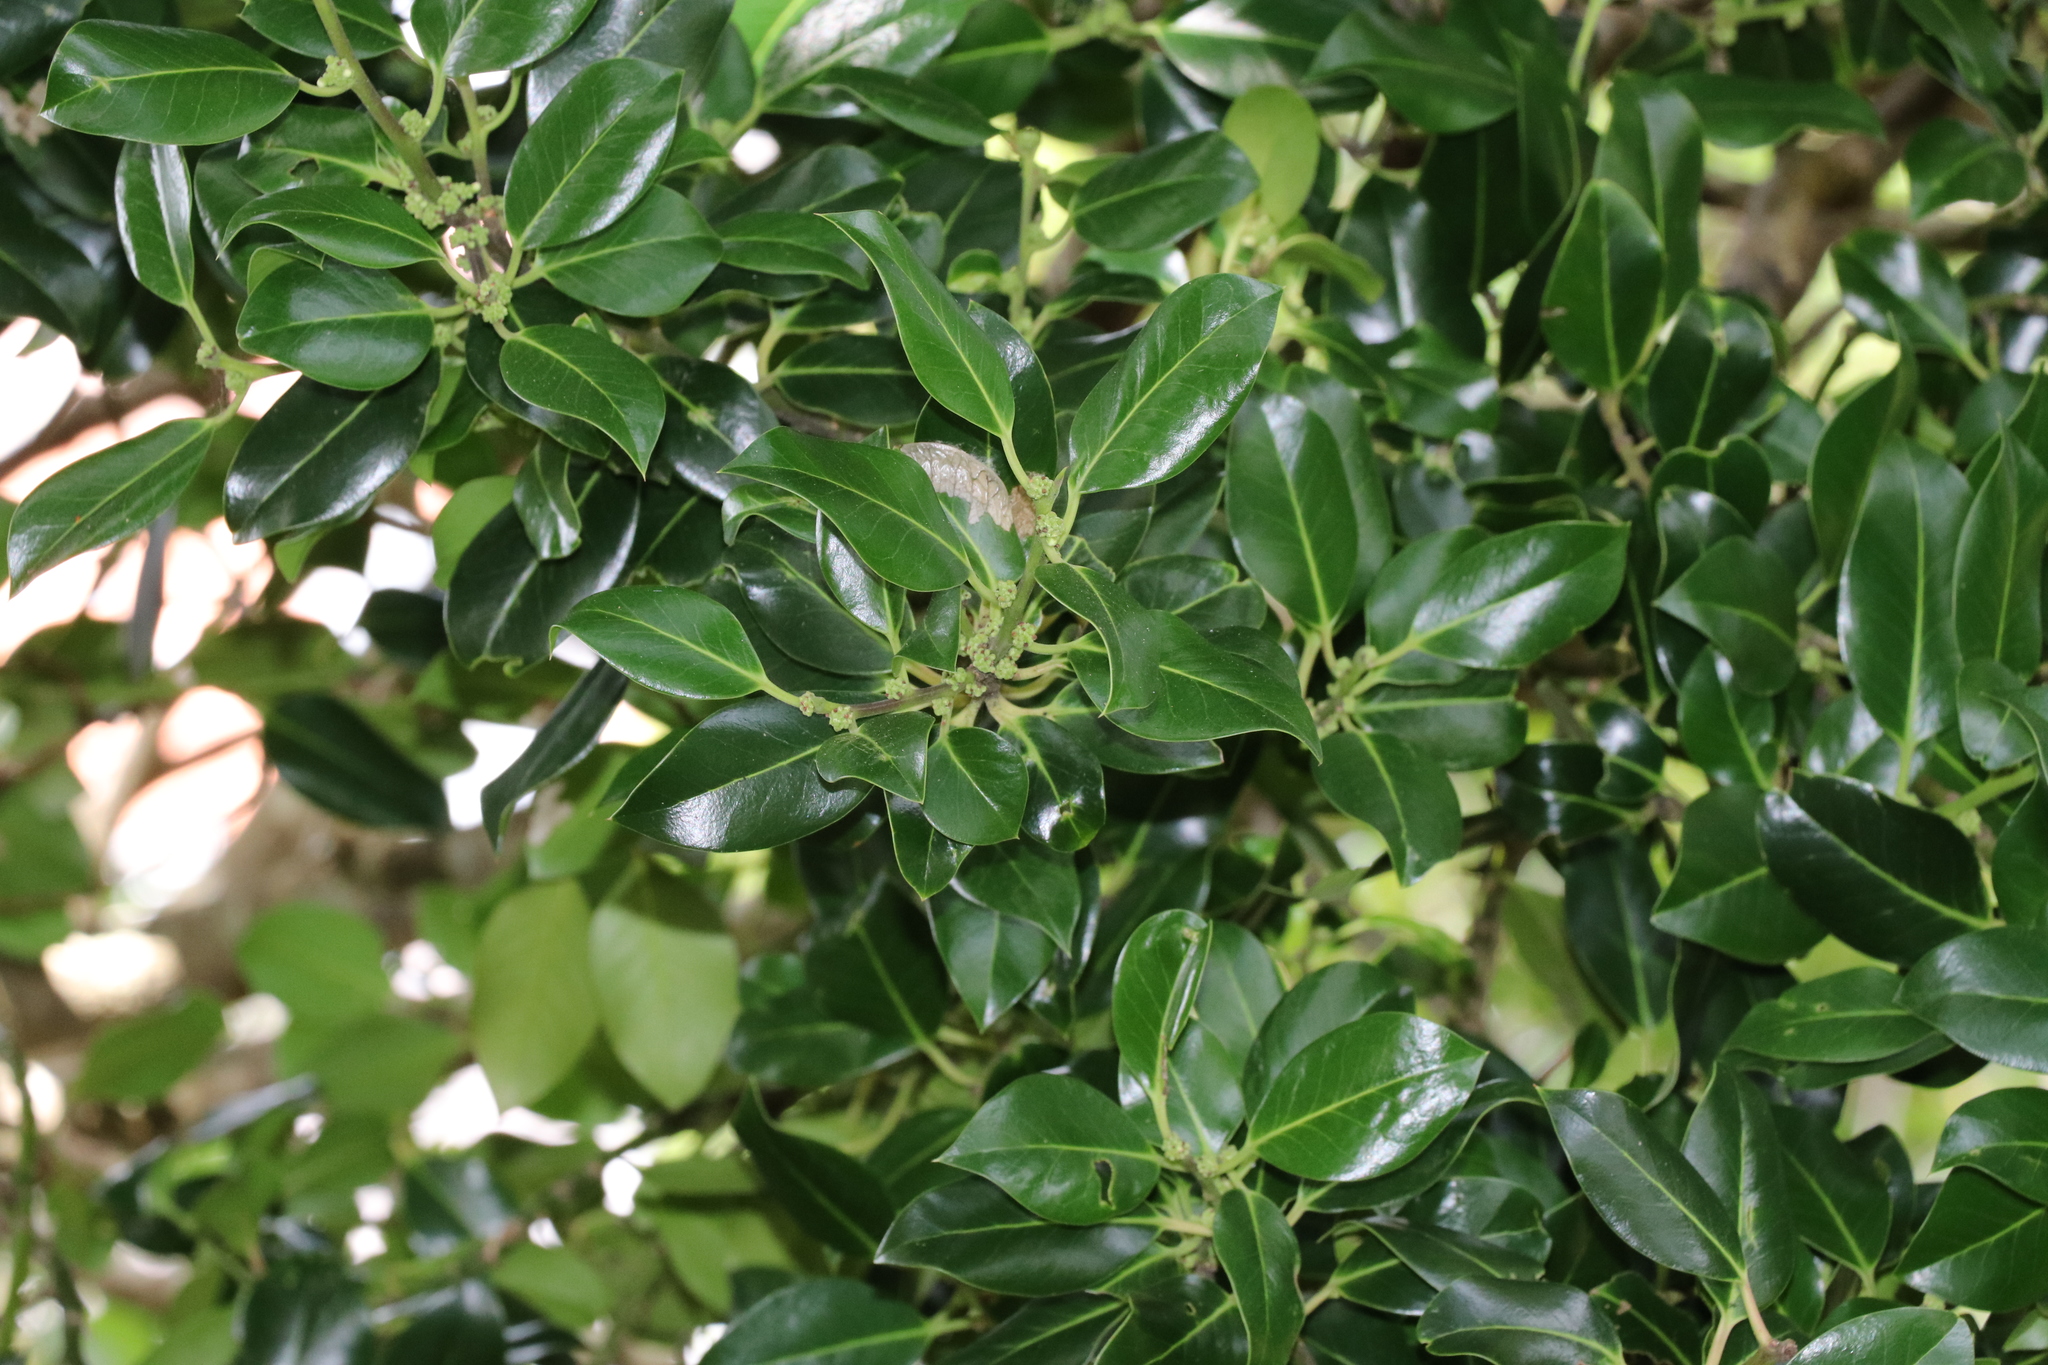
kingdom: Plantae
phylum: Tracheophyta
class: Magnoliopsida
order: Aquifoliales
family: Aquifoliaceae
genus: Ilex
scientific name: Ilex aquifolium
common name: English holly
